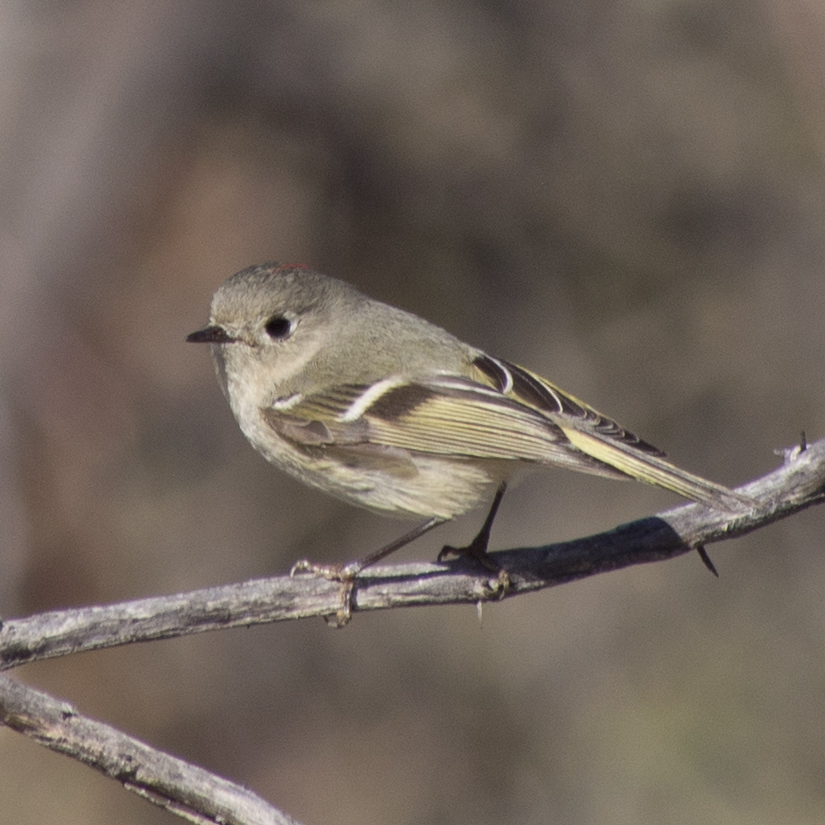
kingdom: Animalia
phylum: Chordata
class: Aves
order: Passeriformes
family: Regulidae
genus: Regulus
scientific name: Regulus calendula
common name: Ruby-crowned kinglet
